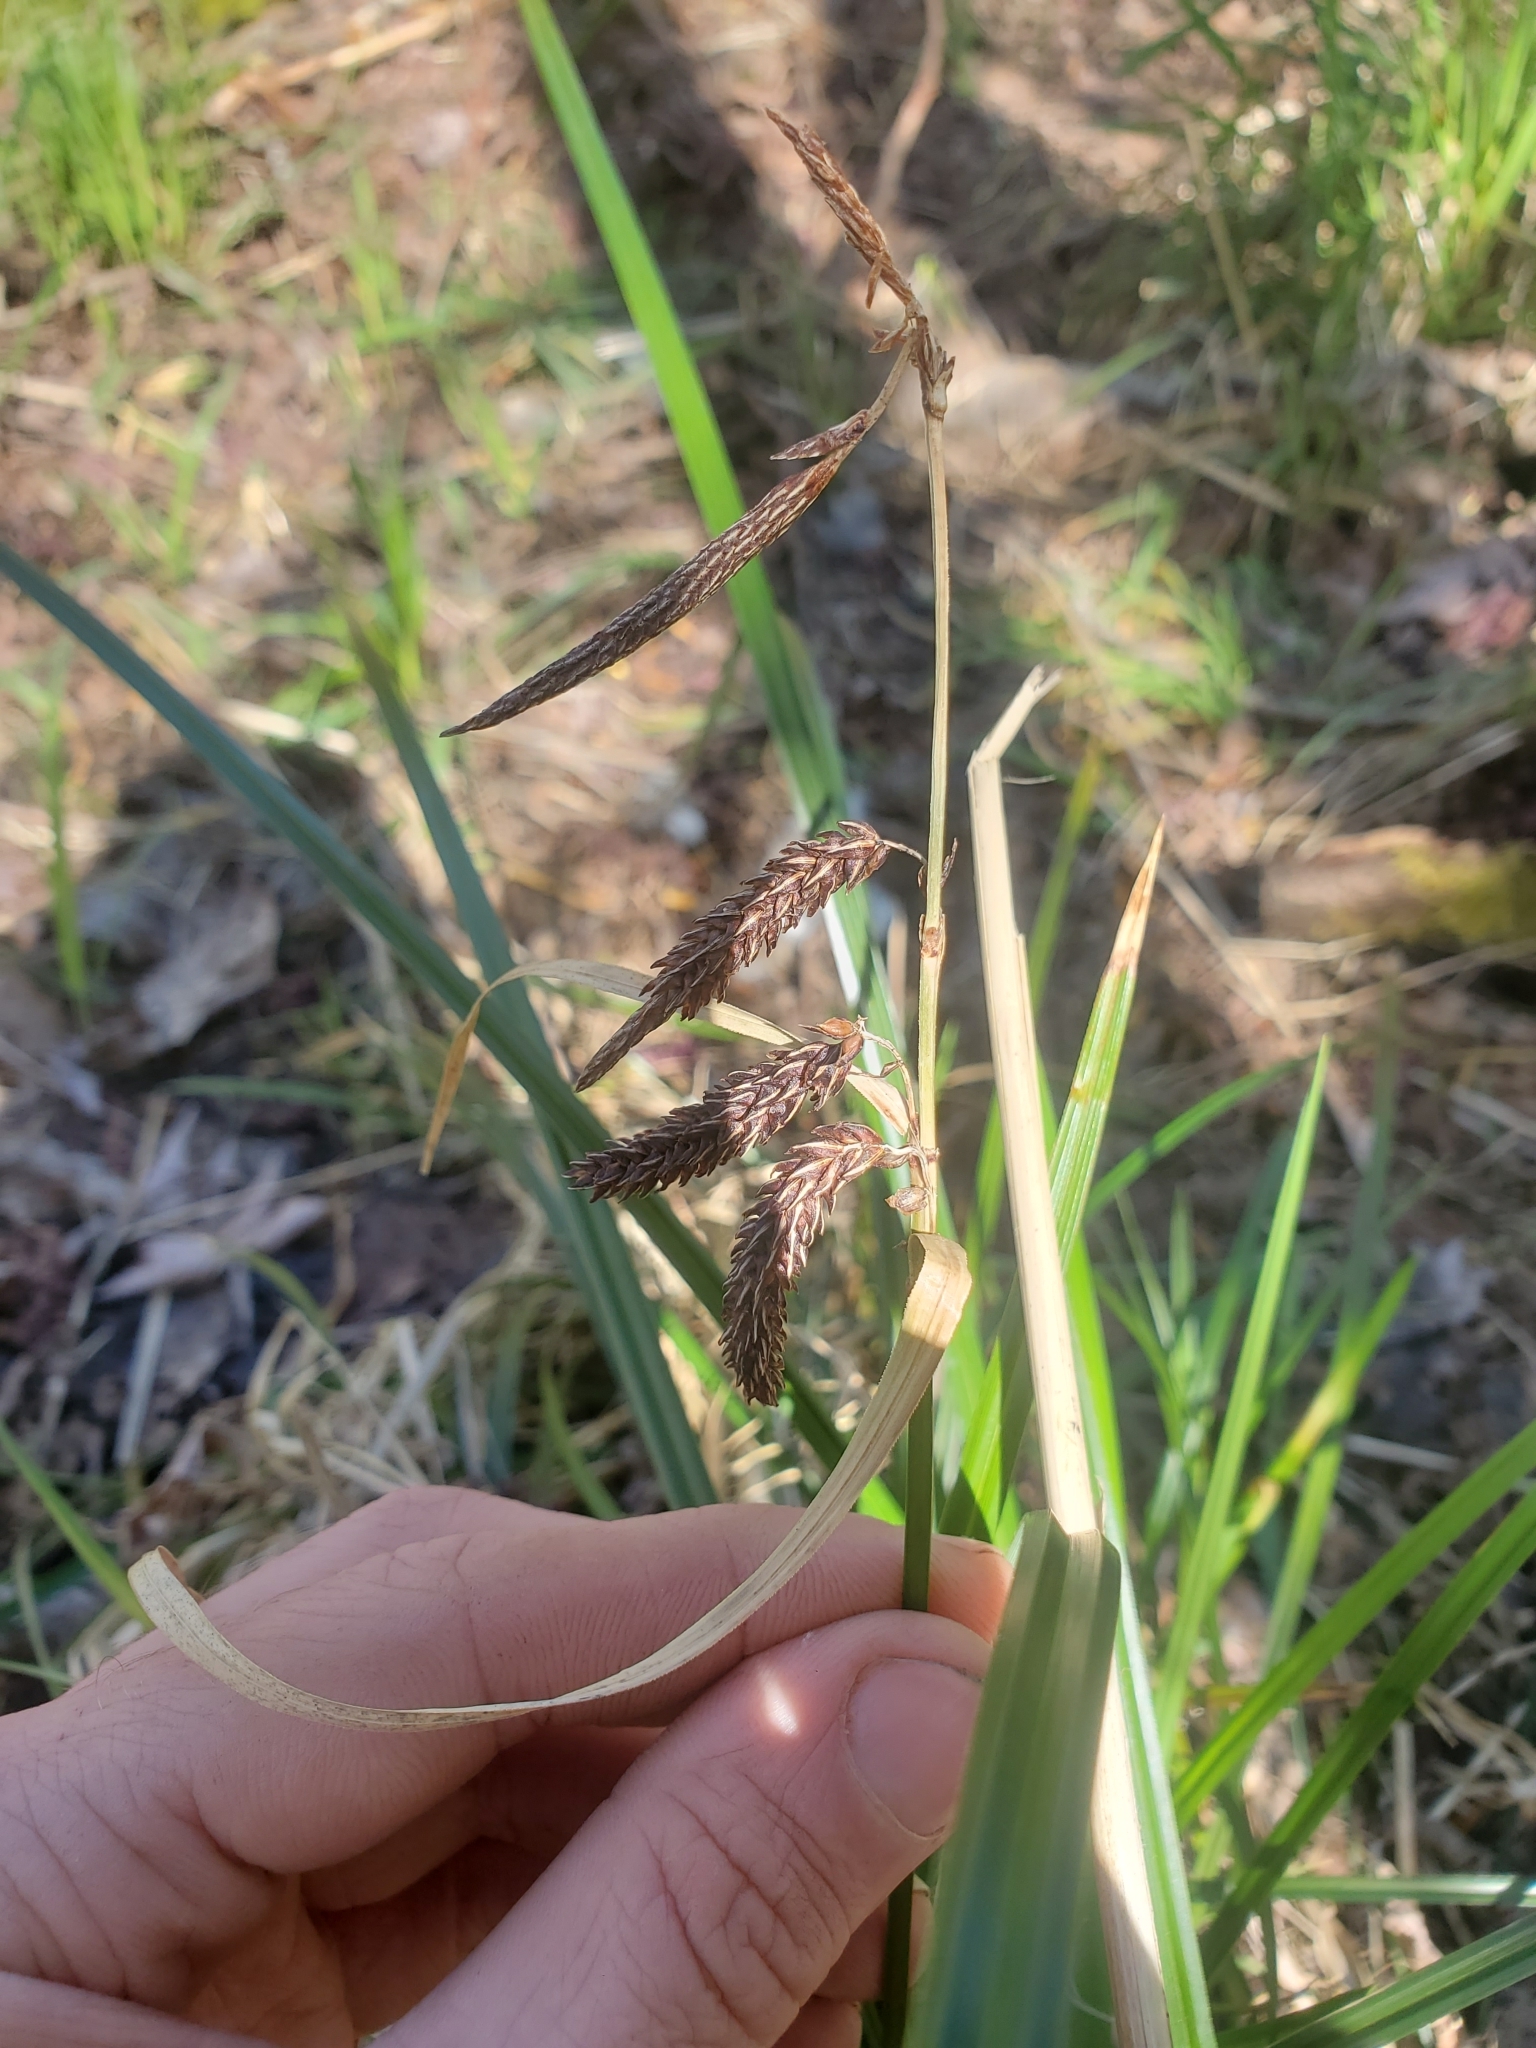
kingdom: Plantae
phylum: Tracheophyta
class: Liliopsida
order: Poales
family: Cyperaceae
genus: Carex
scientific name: Carex obnupta
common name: Slough sedge
